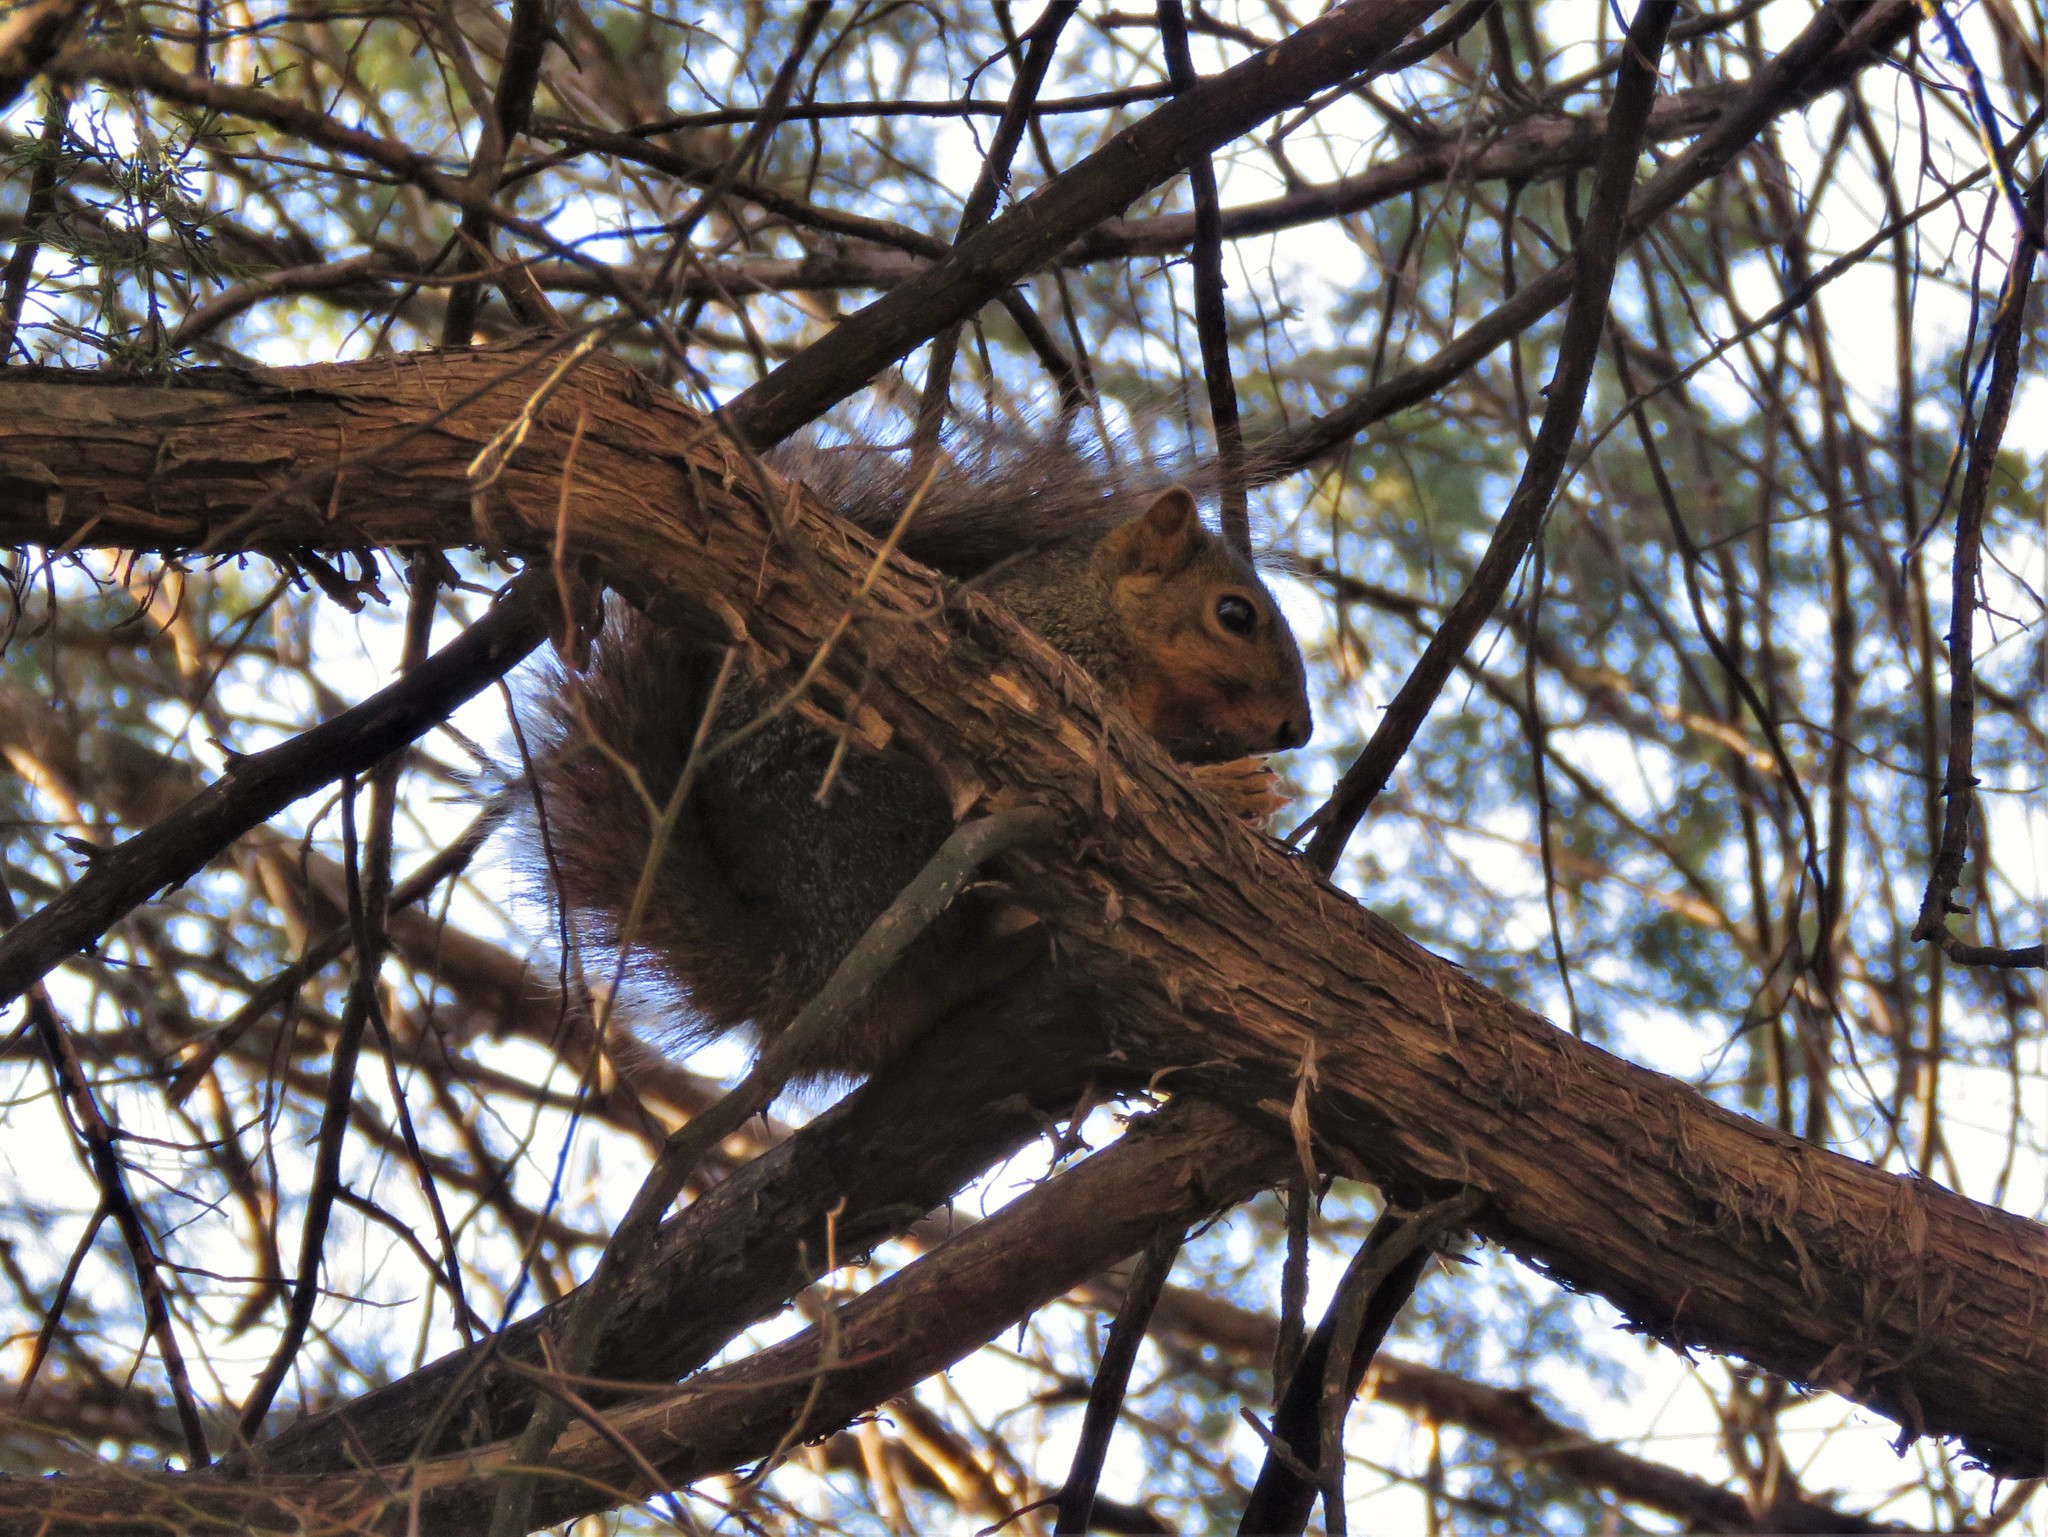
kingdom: Animalia
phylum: Chordata
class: Mammalia
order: Rodentia
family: Sciuridae
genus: Sciurus
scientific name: Sciurus niger
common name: Fox squirrel
